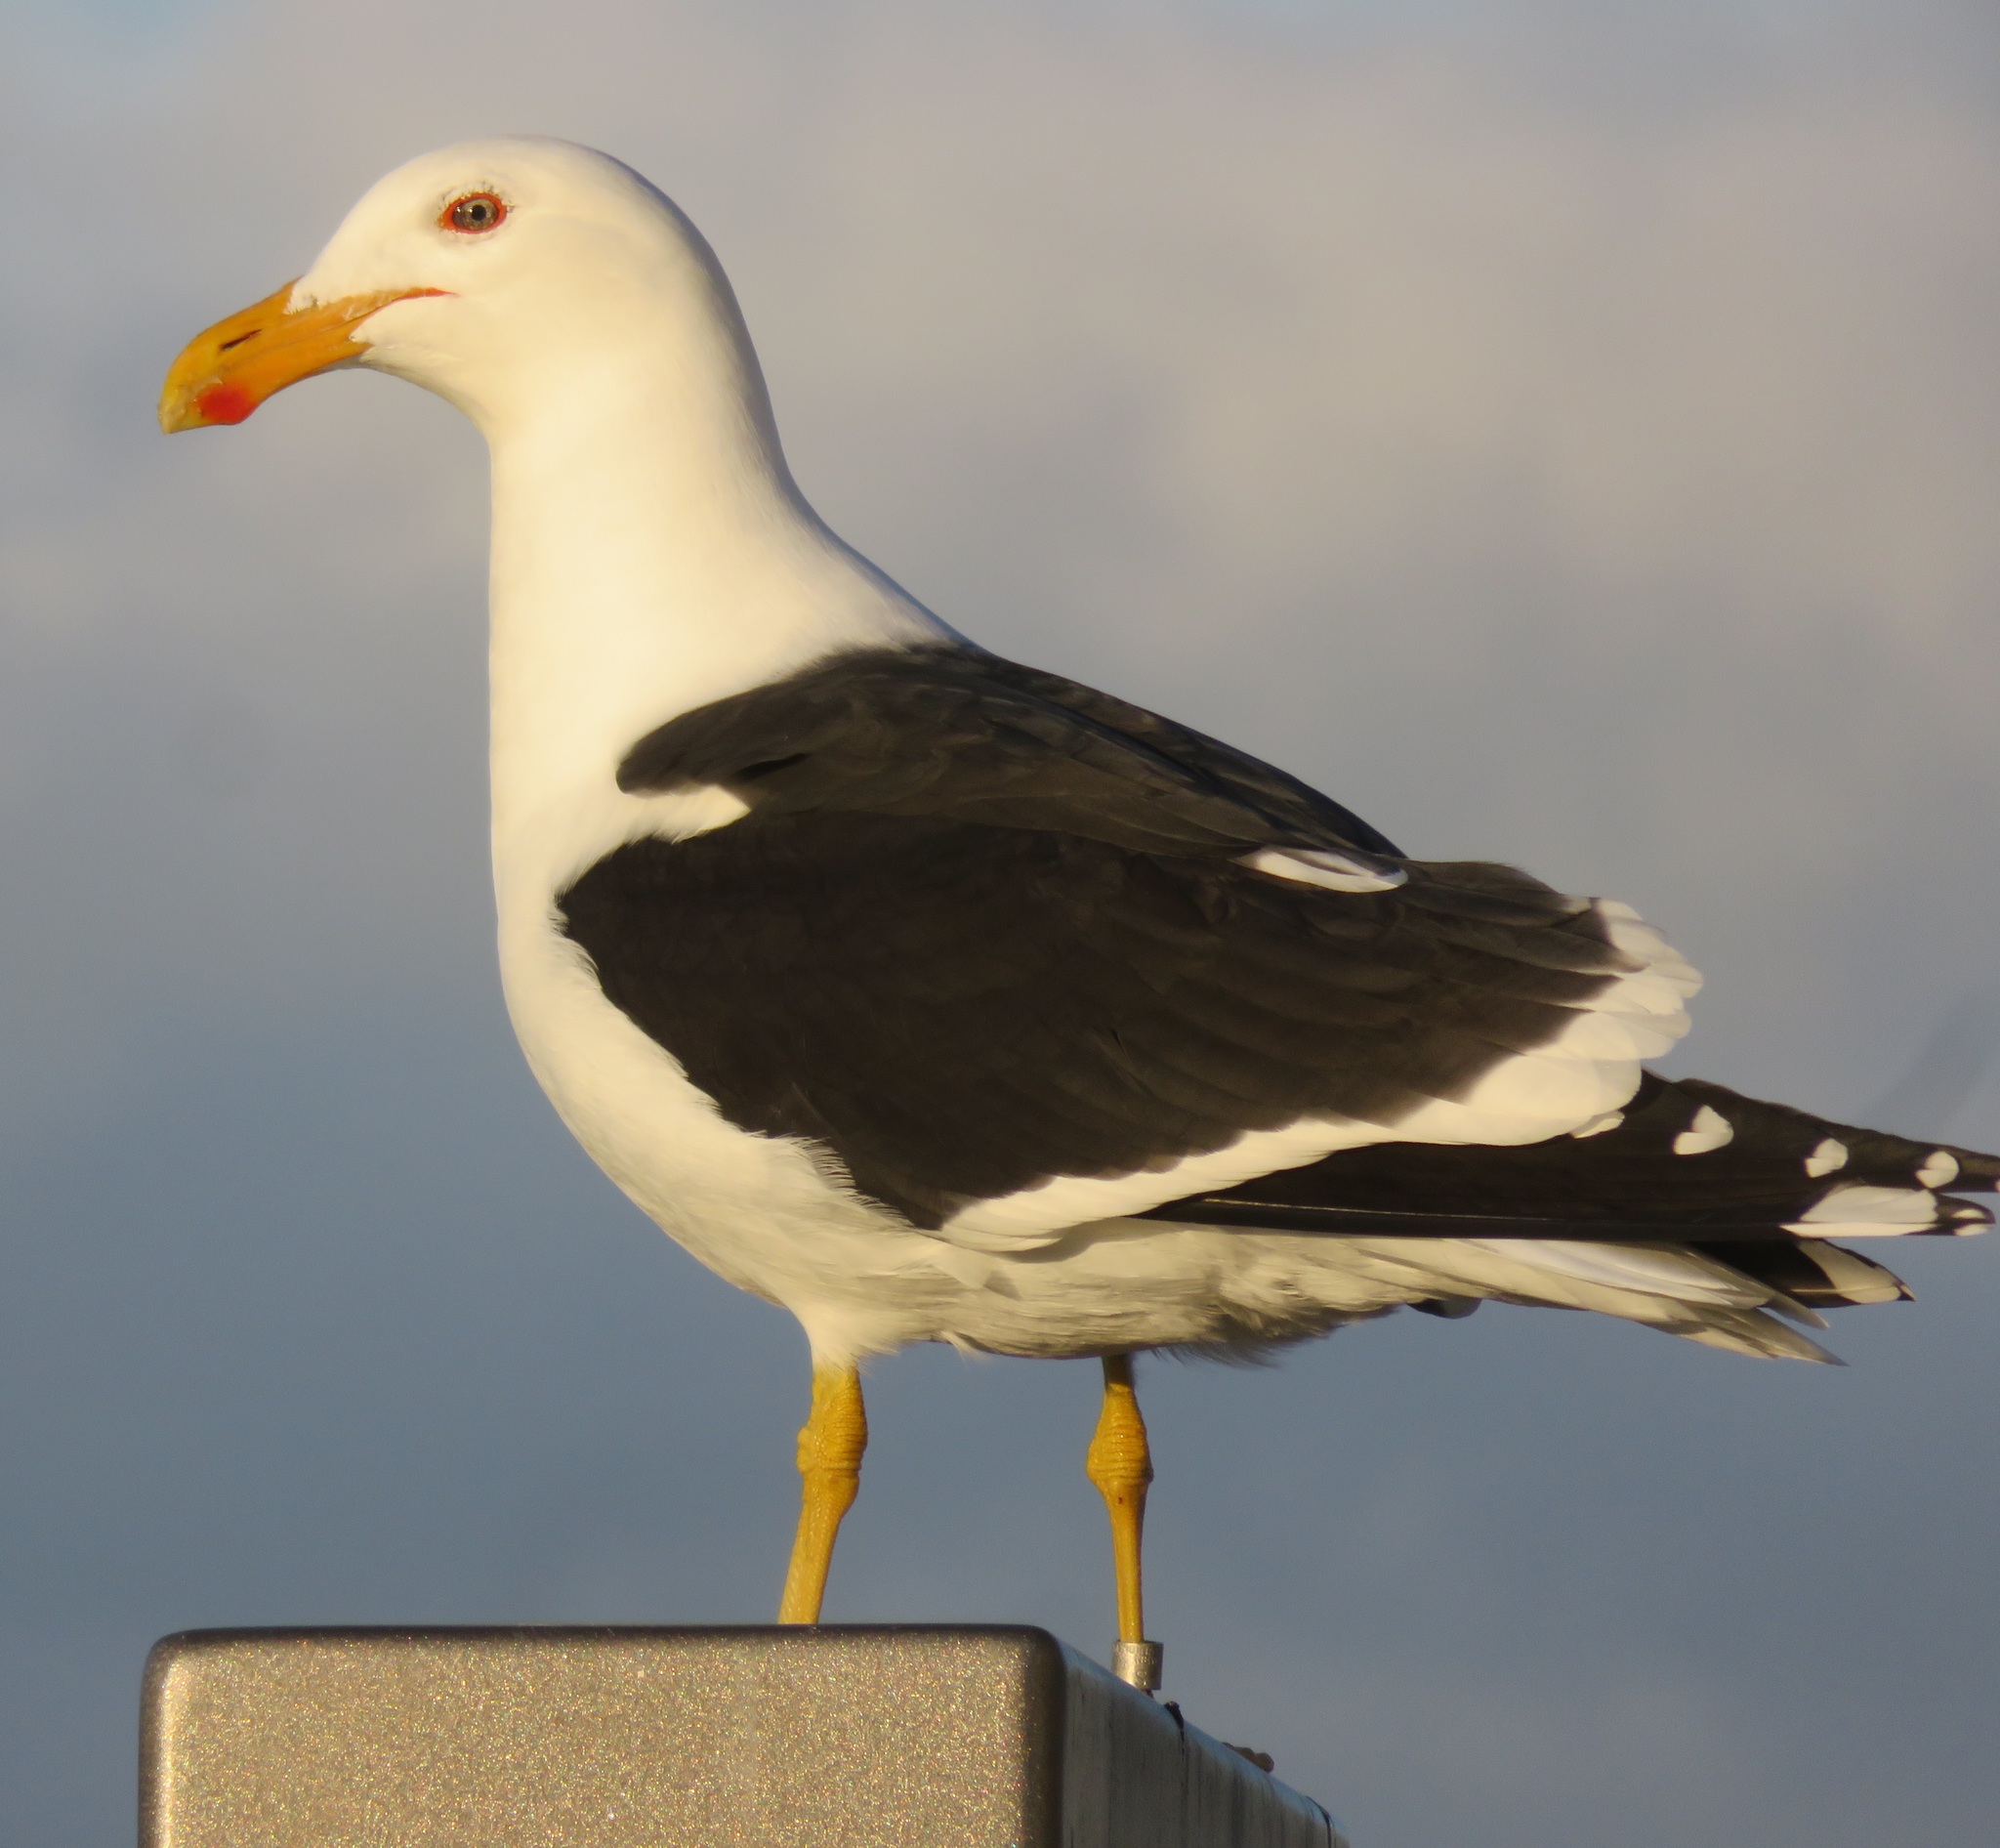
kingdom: Animalia
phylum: Chordata
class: Aves
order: Charadriiformes
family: Laridae
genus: Larus
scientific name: Larus dominicanus
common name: Kelp gull
